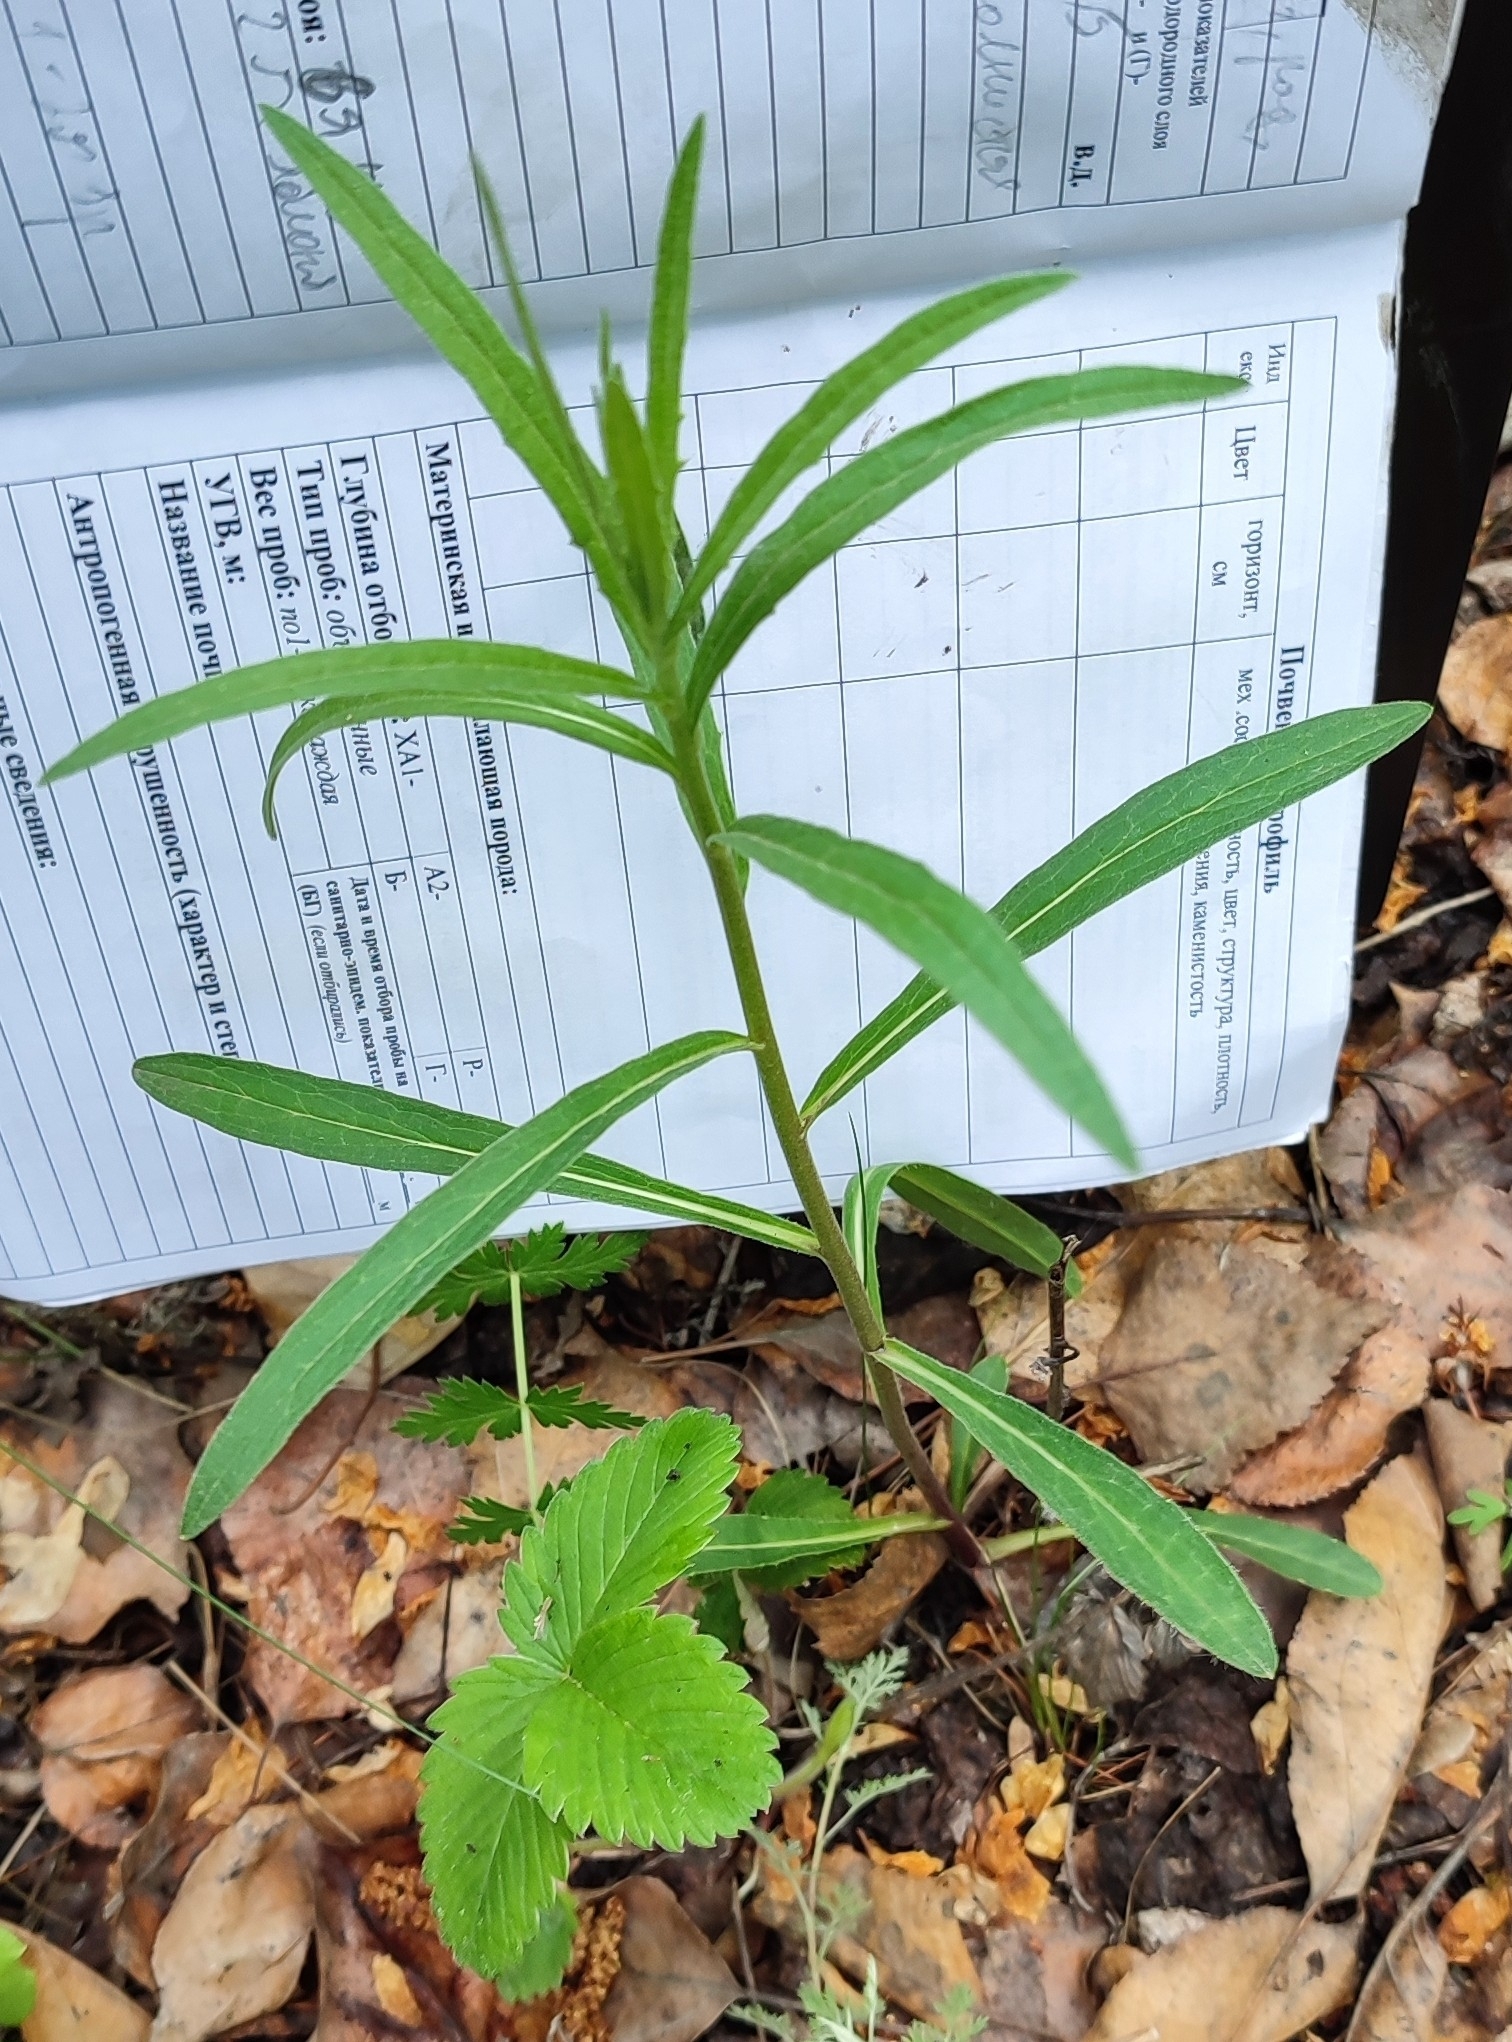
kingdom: Plantae
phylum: Tracheophyta
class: Magnoliopsida
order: Asterales
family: Asteraceae
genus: Hieracium
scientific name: Hieracium umbellatum
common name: Northern hawkweed
